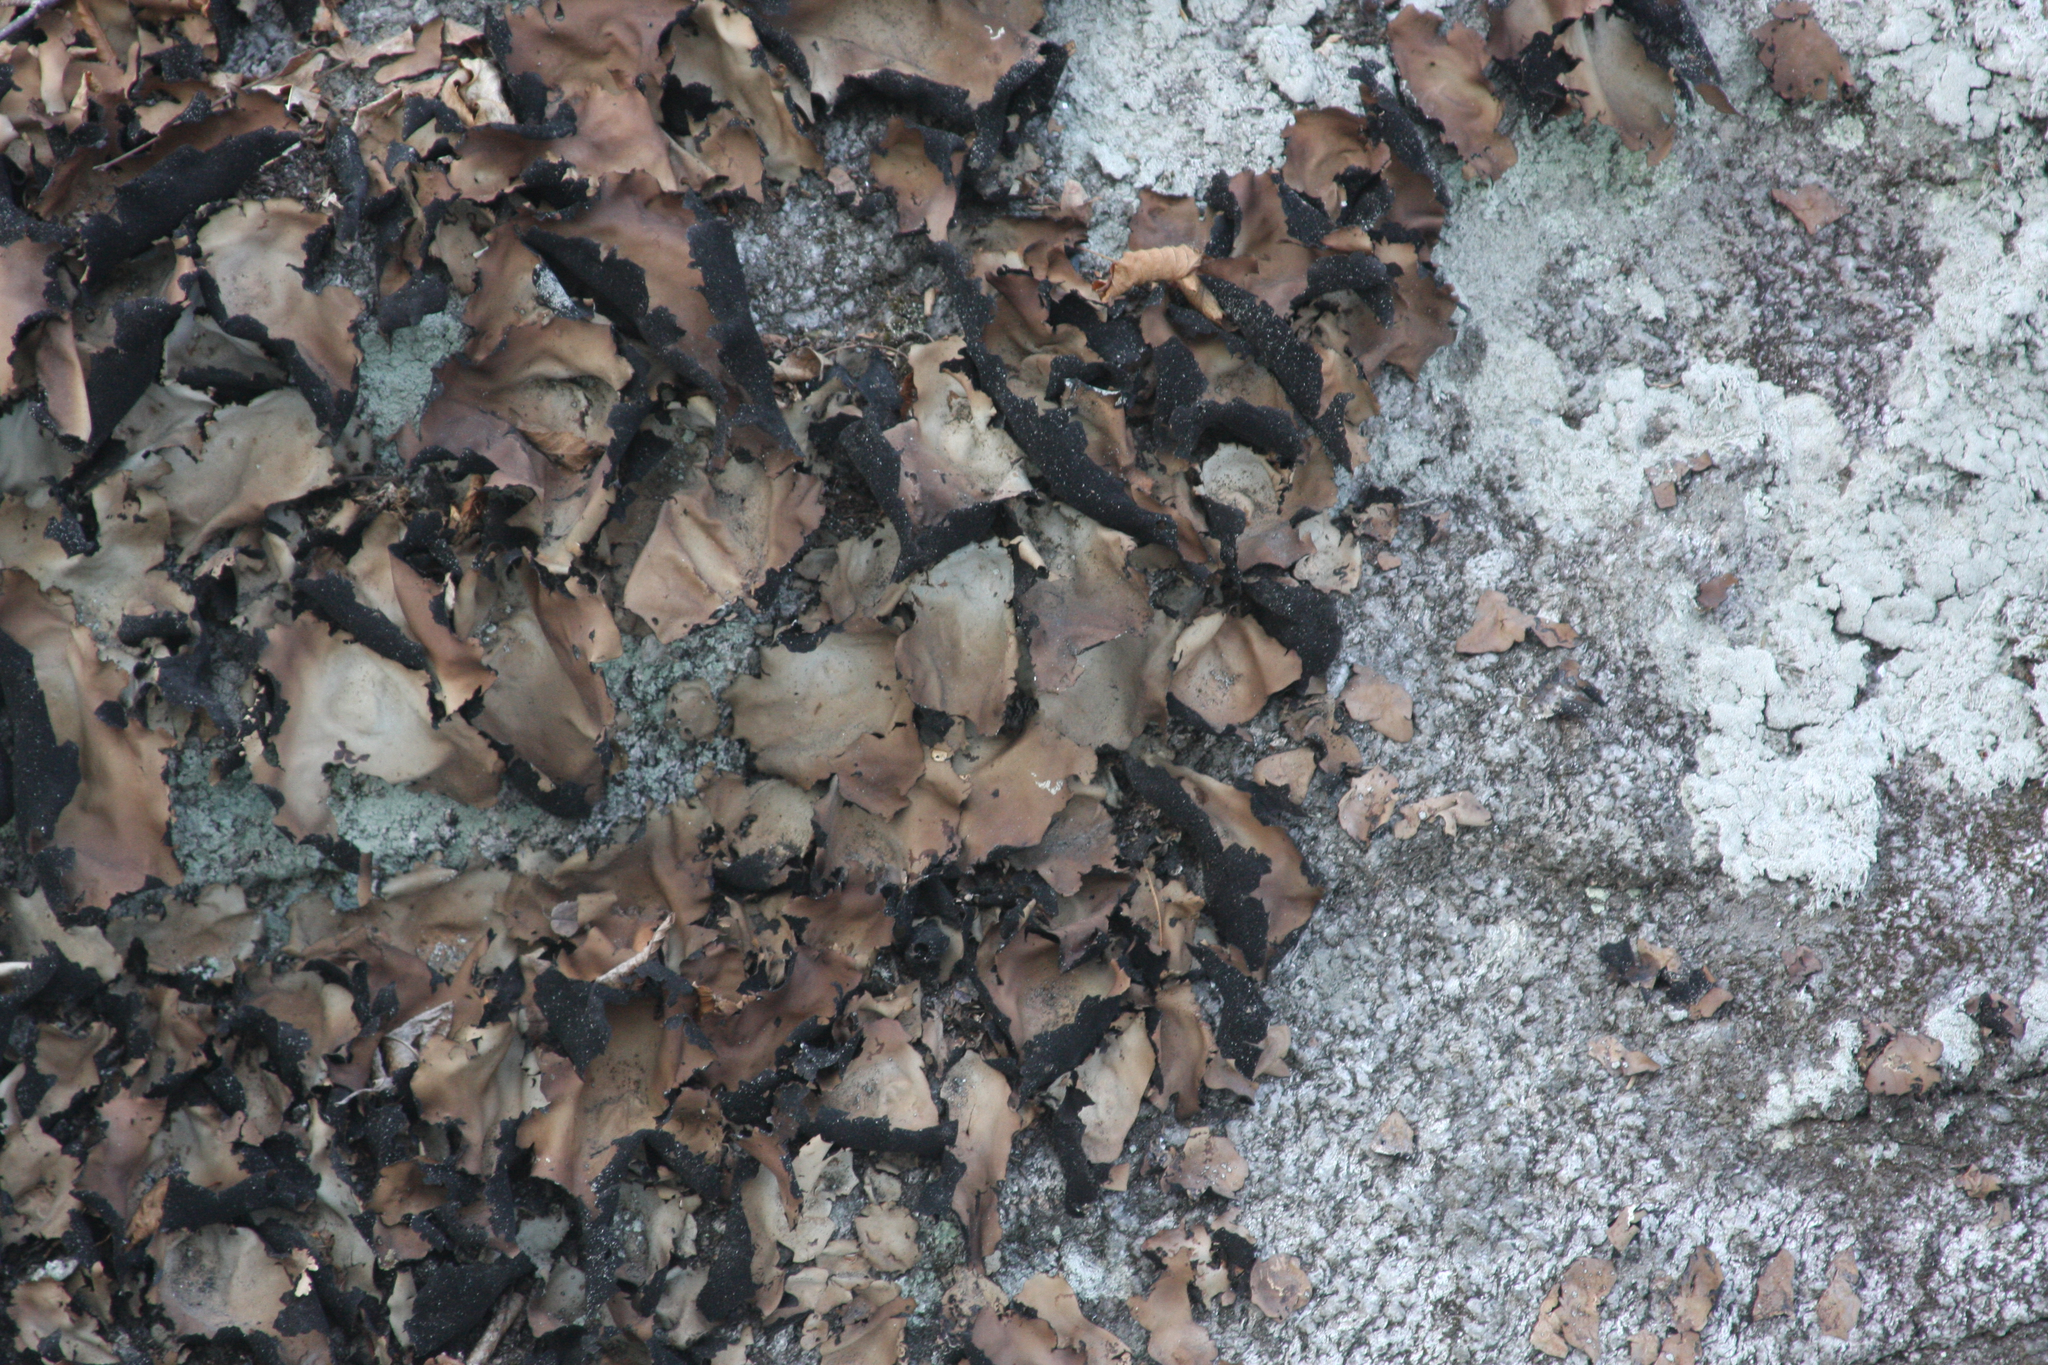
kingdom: Fungi
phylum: Ascomycota
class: Lecanoromycetes
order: Umbilicariales
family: Umbilicariaceae
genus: Umbilicaria
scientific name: Umbilicaria mammulata
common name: Smooth rock tripe
